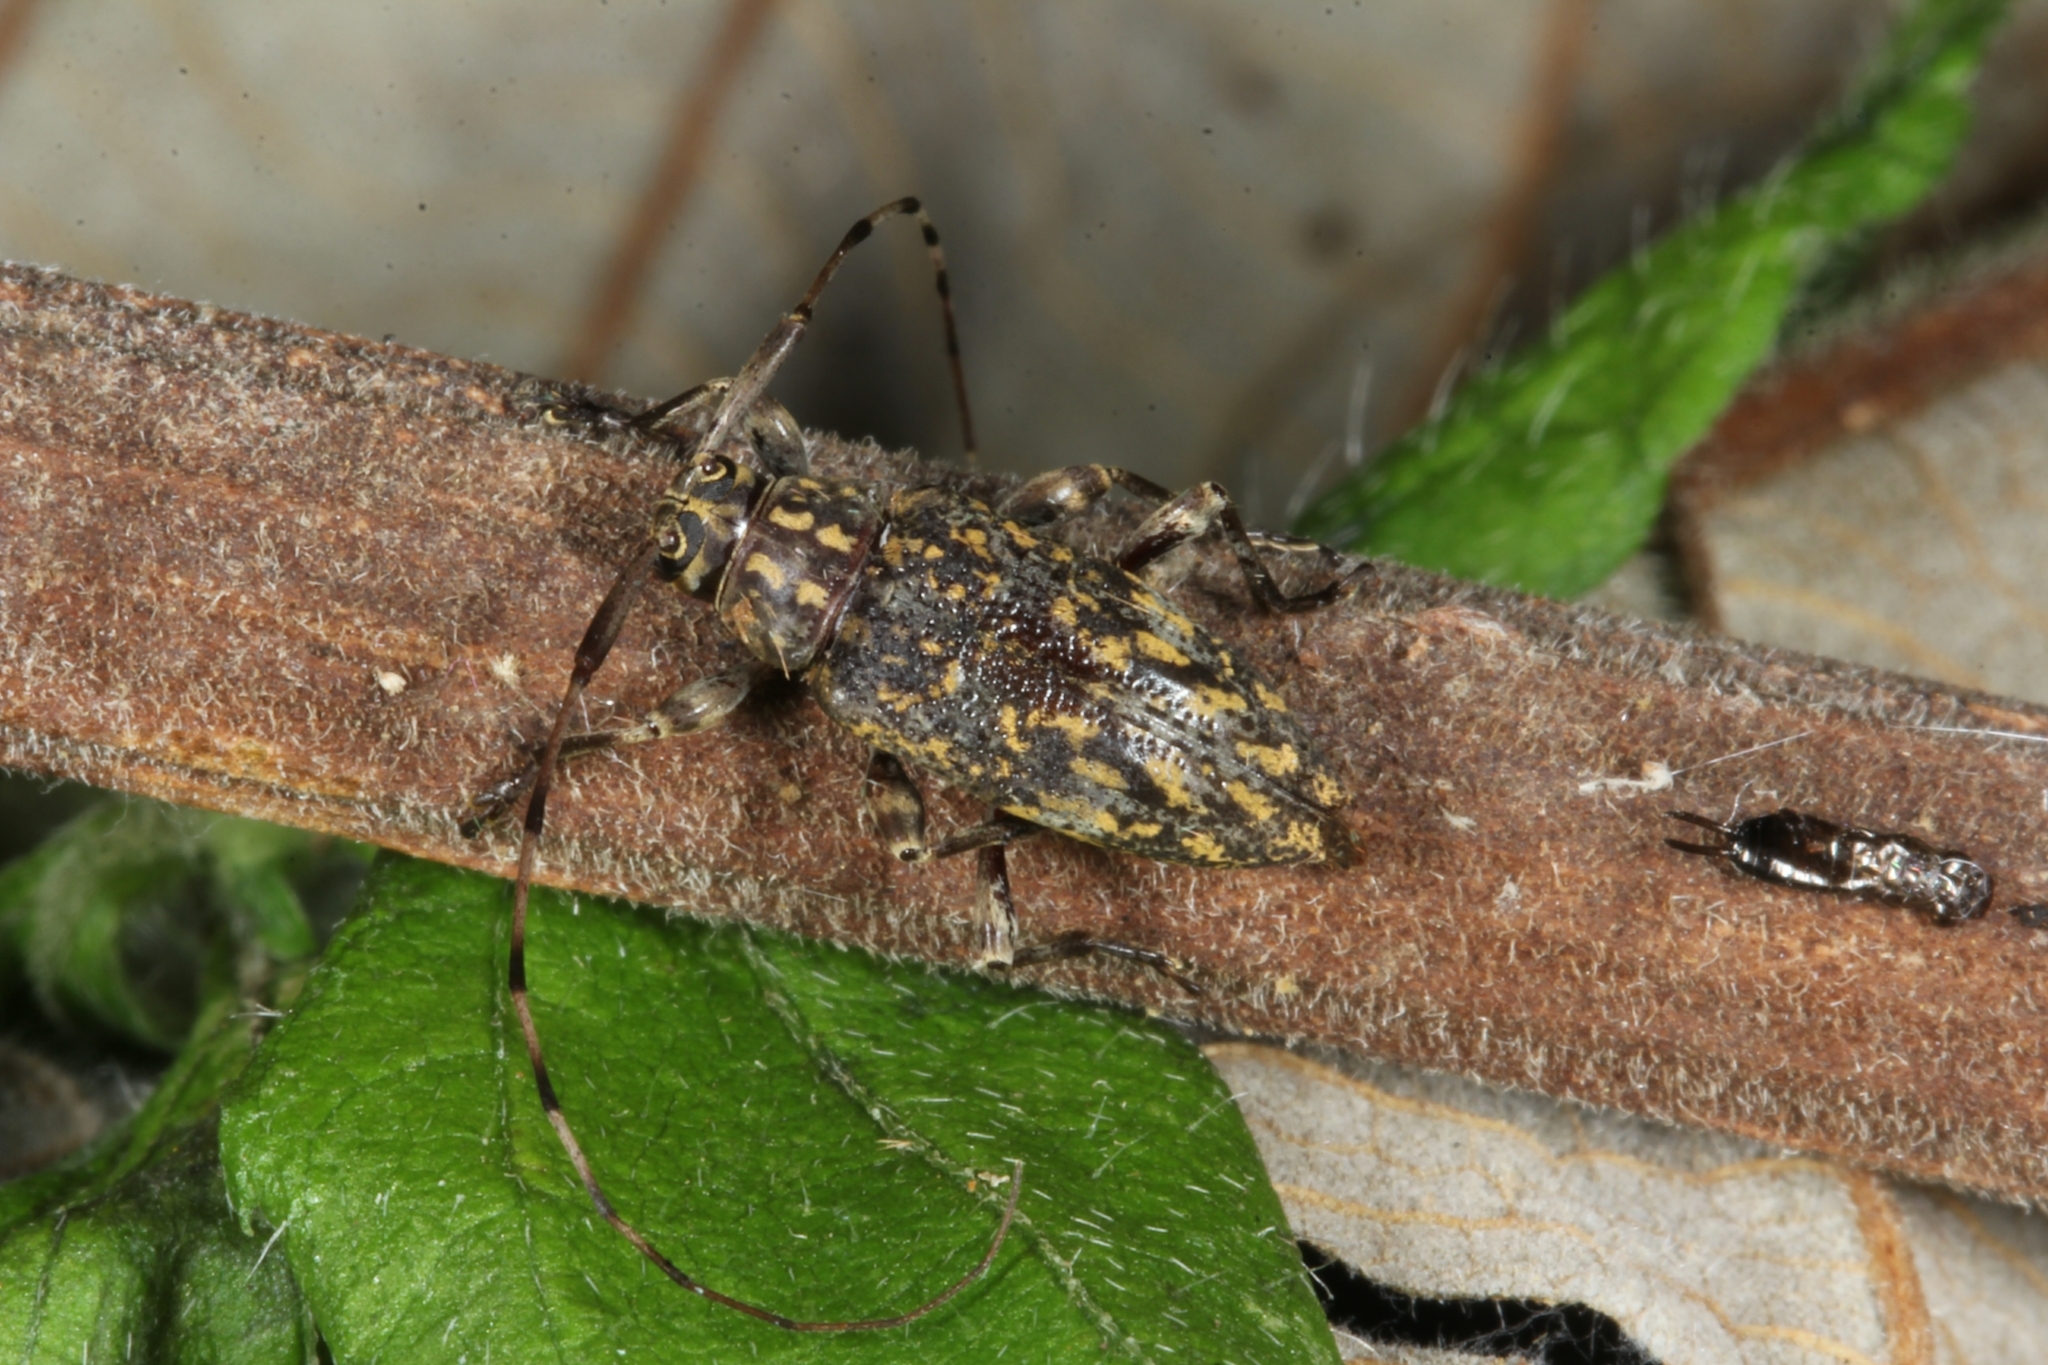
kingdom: Animalia
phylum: Arthropoda
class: Insecta
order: Coleoptera
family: Cerambycidae
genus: Atrypanius
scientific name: Atrypanius haldemani
